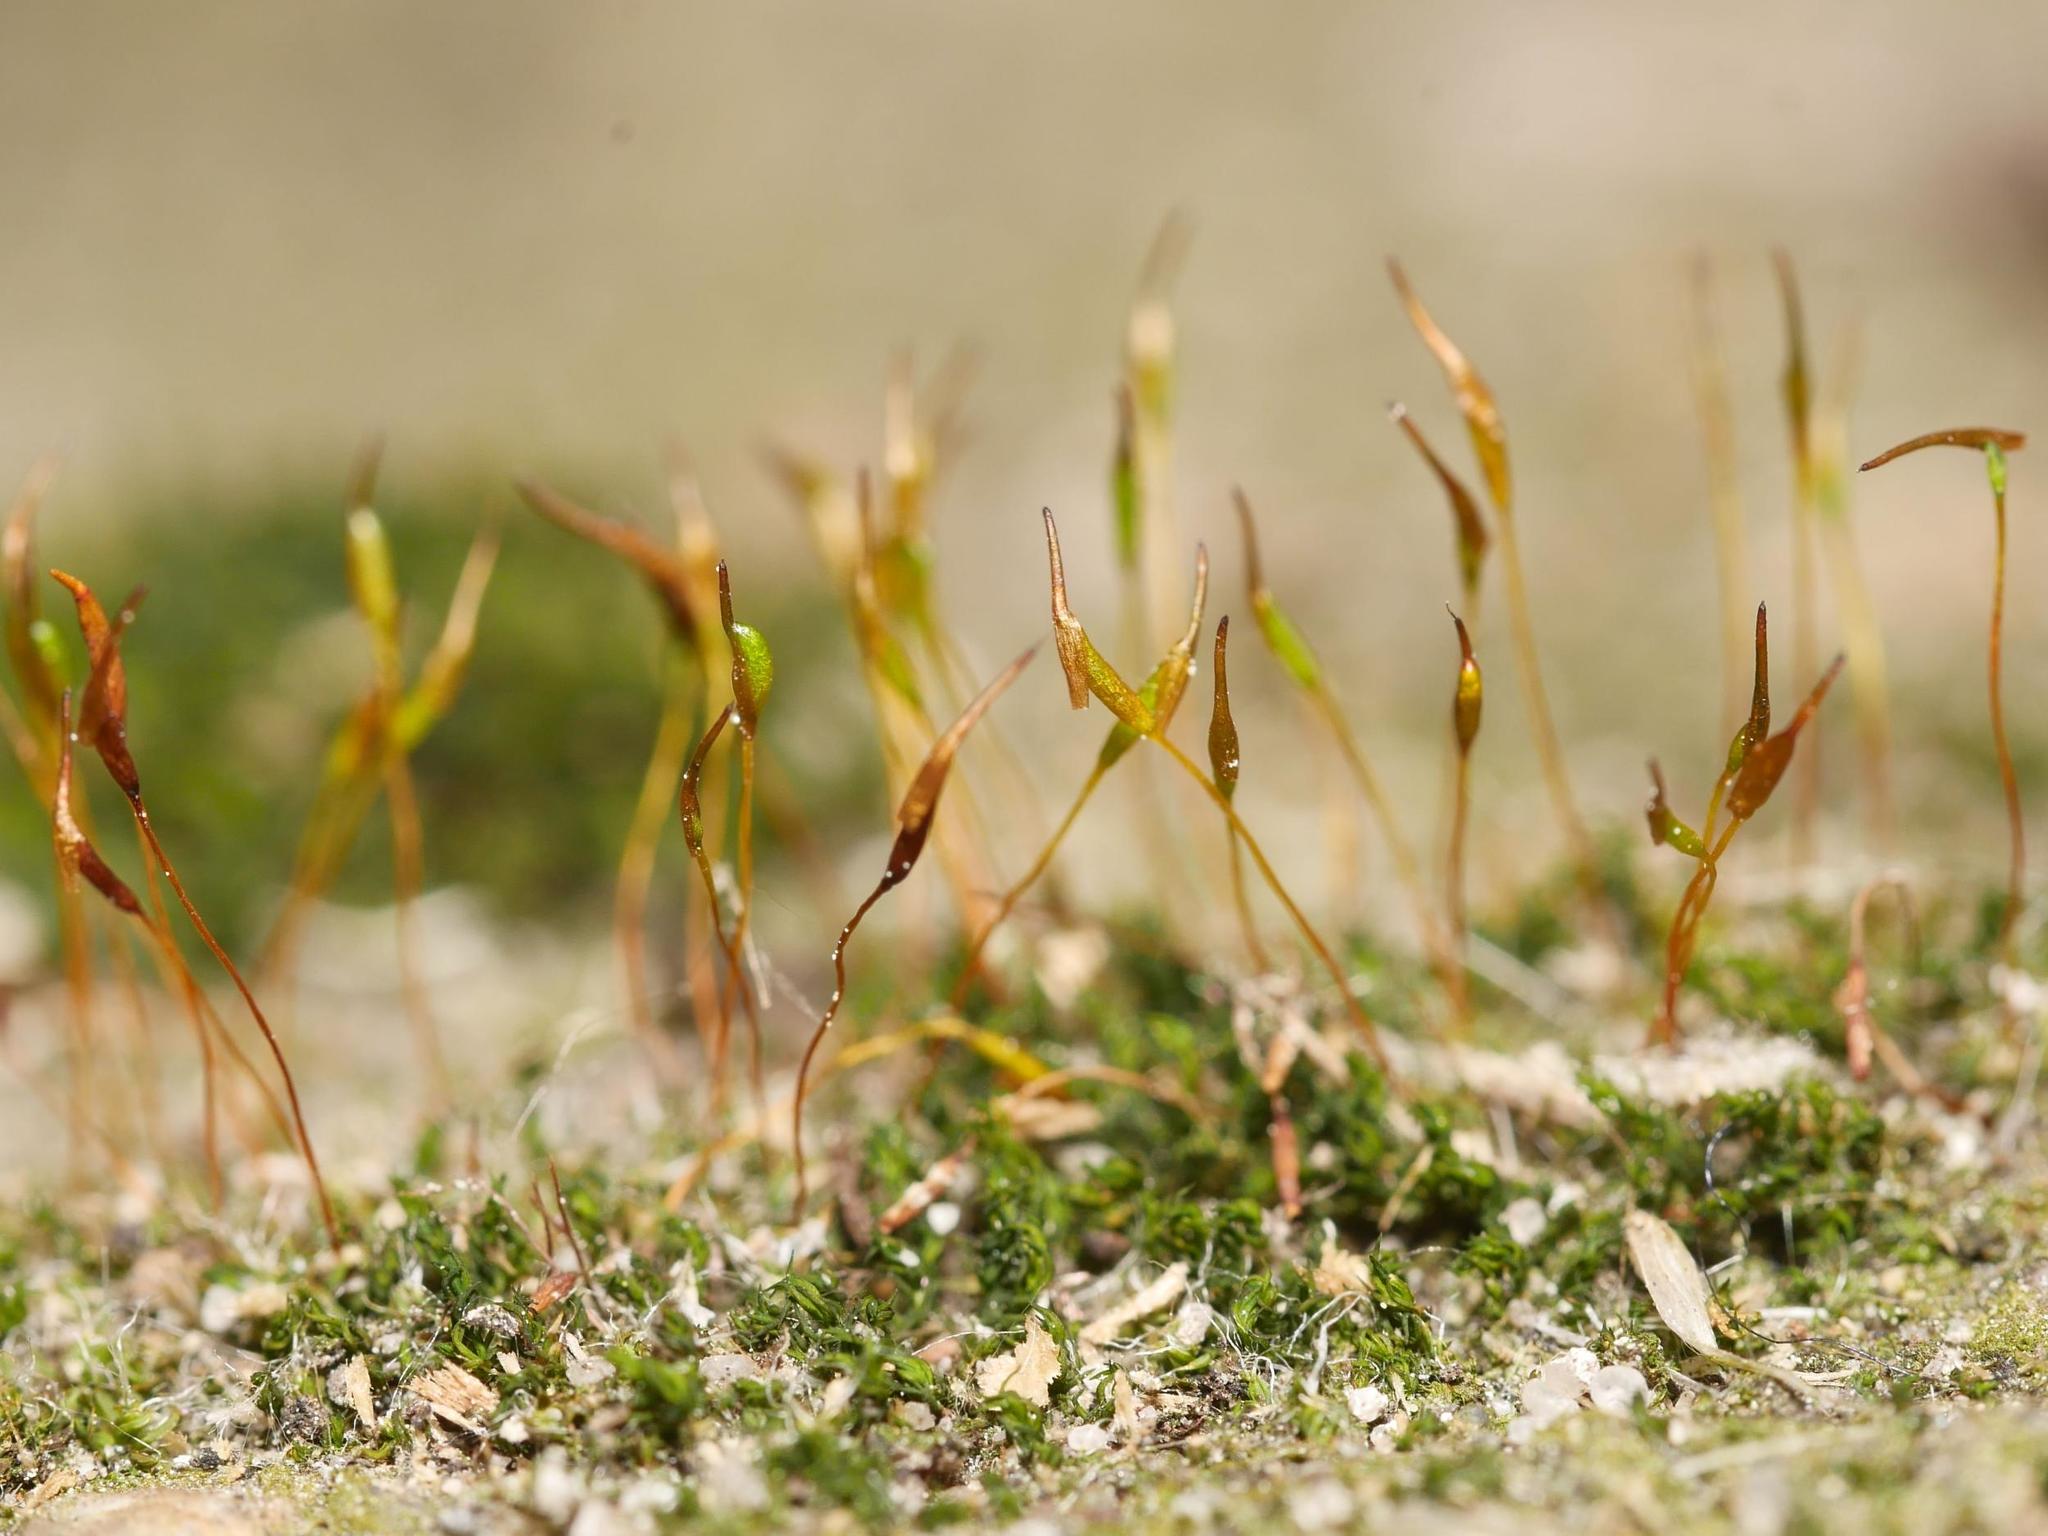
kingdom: Plantae
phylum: Bryophyta
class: Bryopsida
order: Pottiales
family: Pottiaceae
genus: Tortula
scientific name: Tortula muralis
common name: Wall screw-moss
